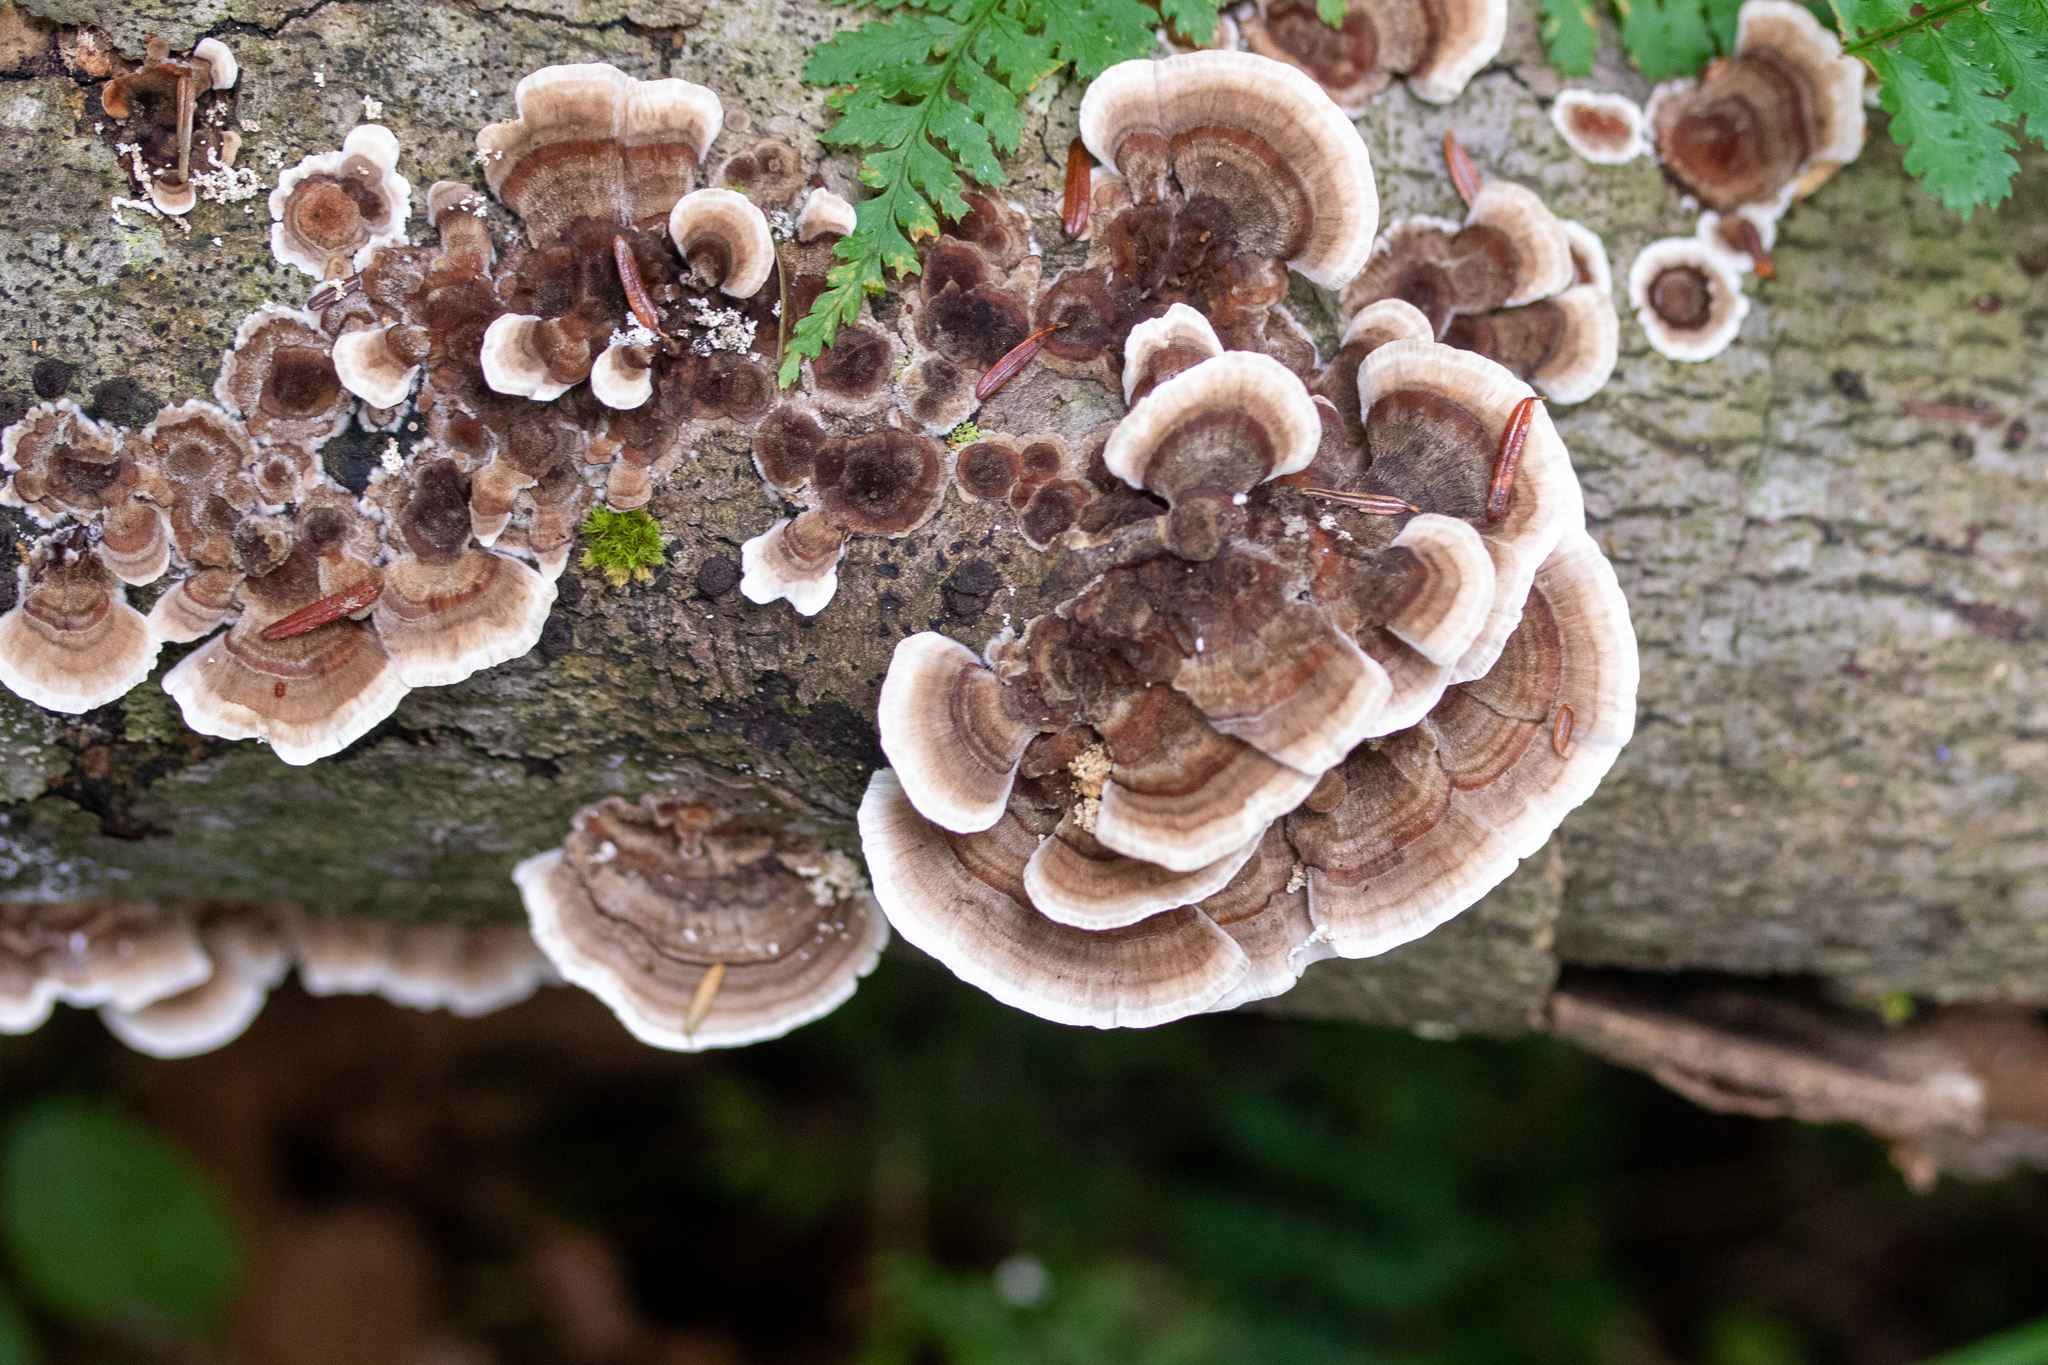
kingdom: Fungi
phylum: Basidiomycota
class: Agaricomycetes
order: Polyporales
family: Polyporaceae
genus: Trametes
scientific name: Trametes versicolor
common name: Turkeytail
